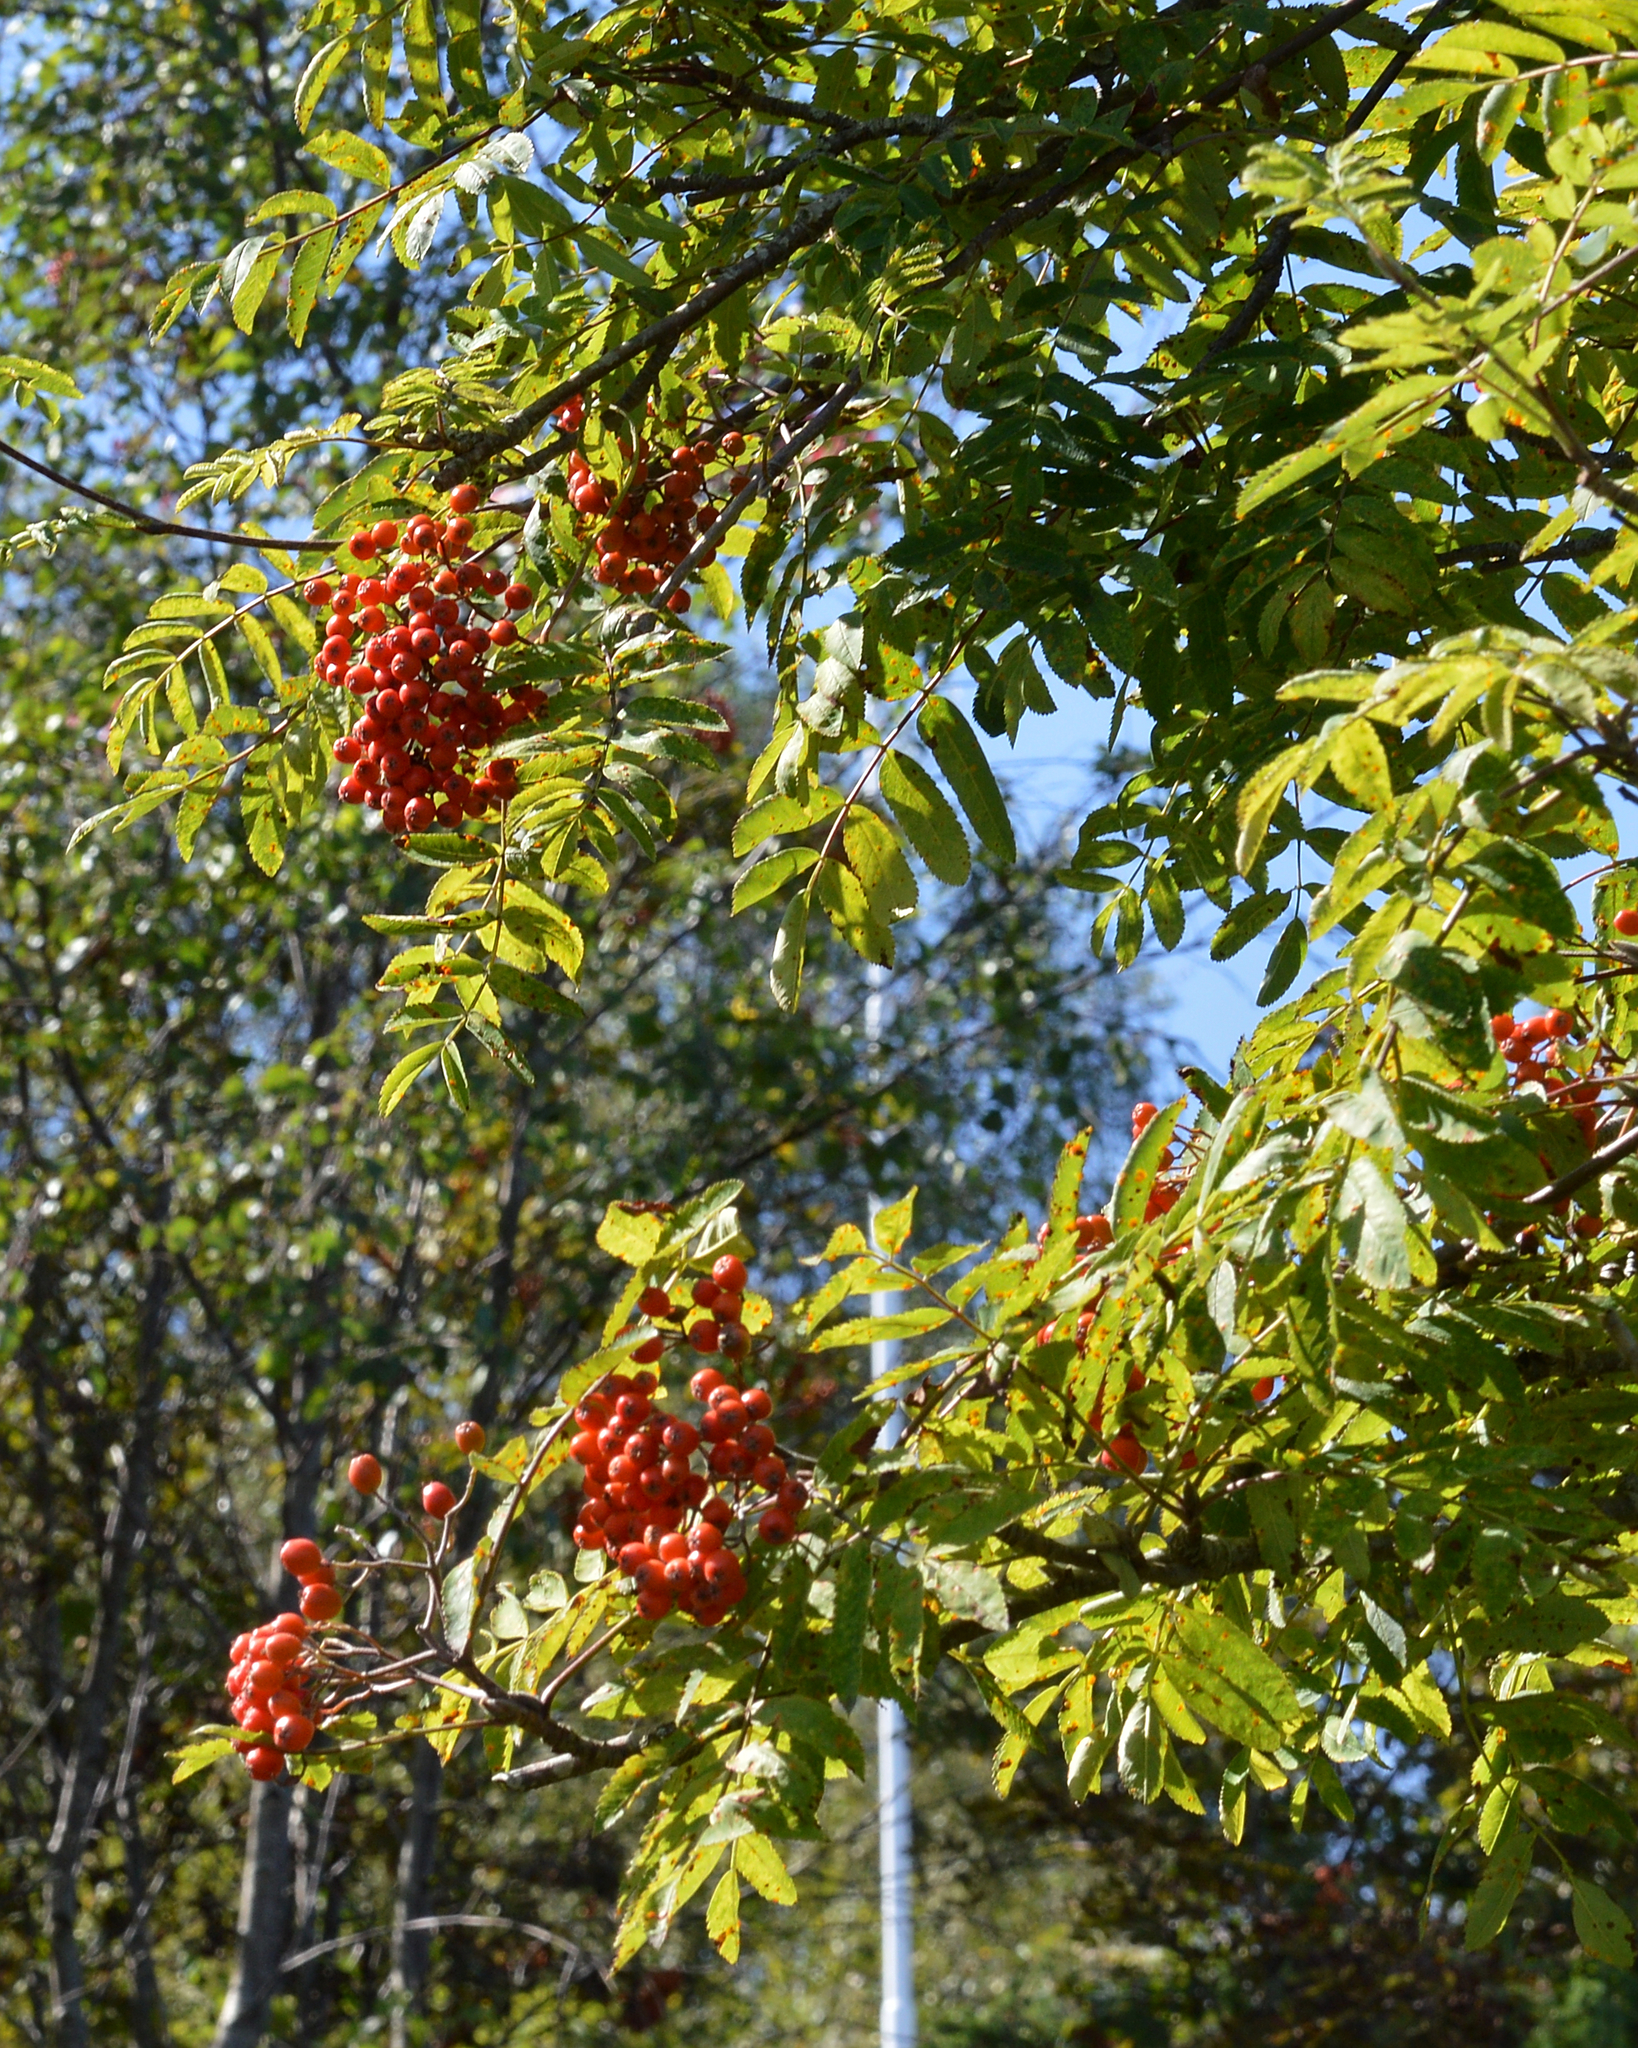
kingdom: Plantae
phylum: Tracheophyta
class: Magnoliopsida
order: Rosales
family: Rosaceae
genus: Sorbus
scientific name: Sorbus aucuparia
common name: Rowan
